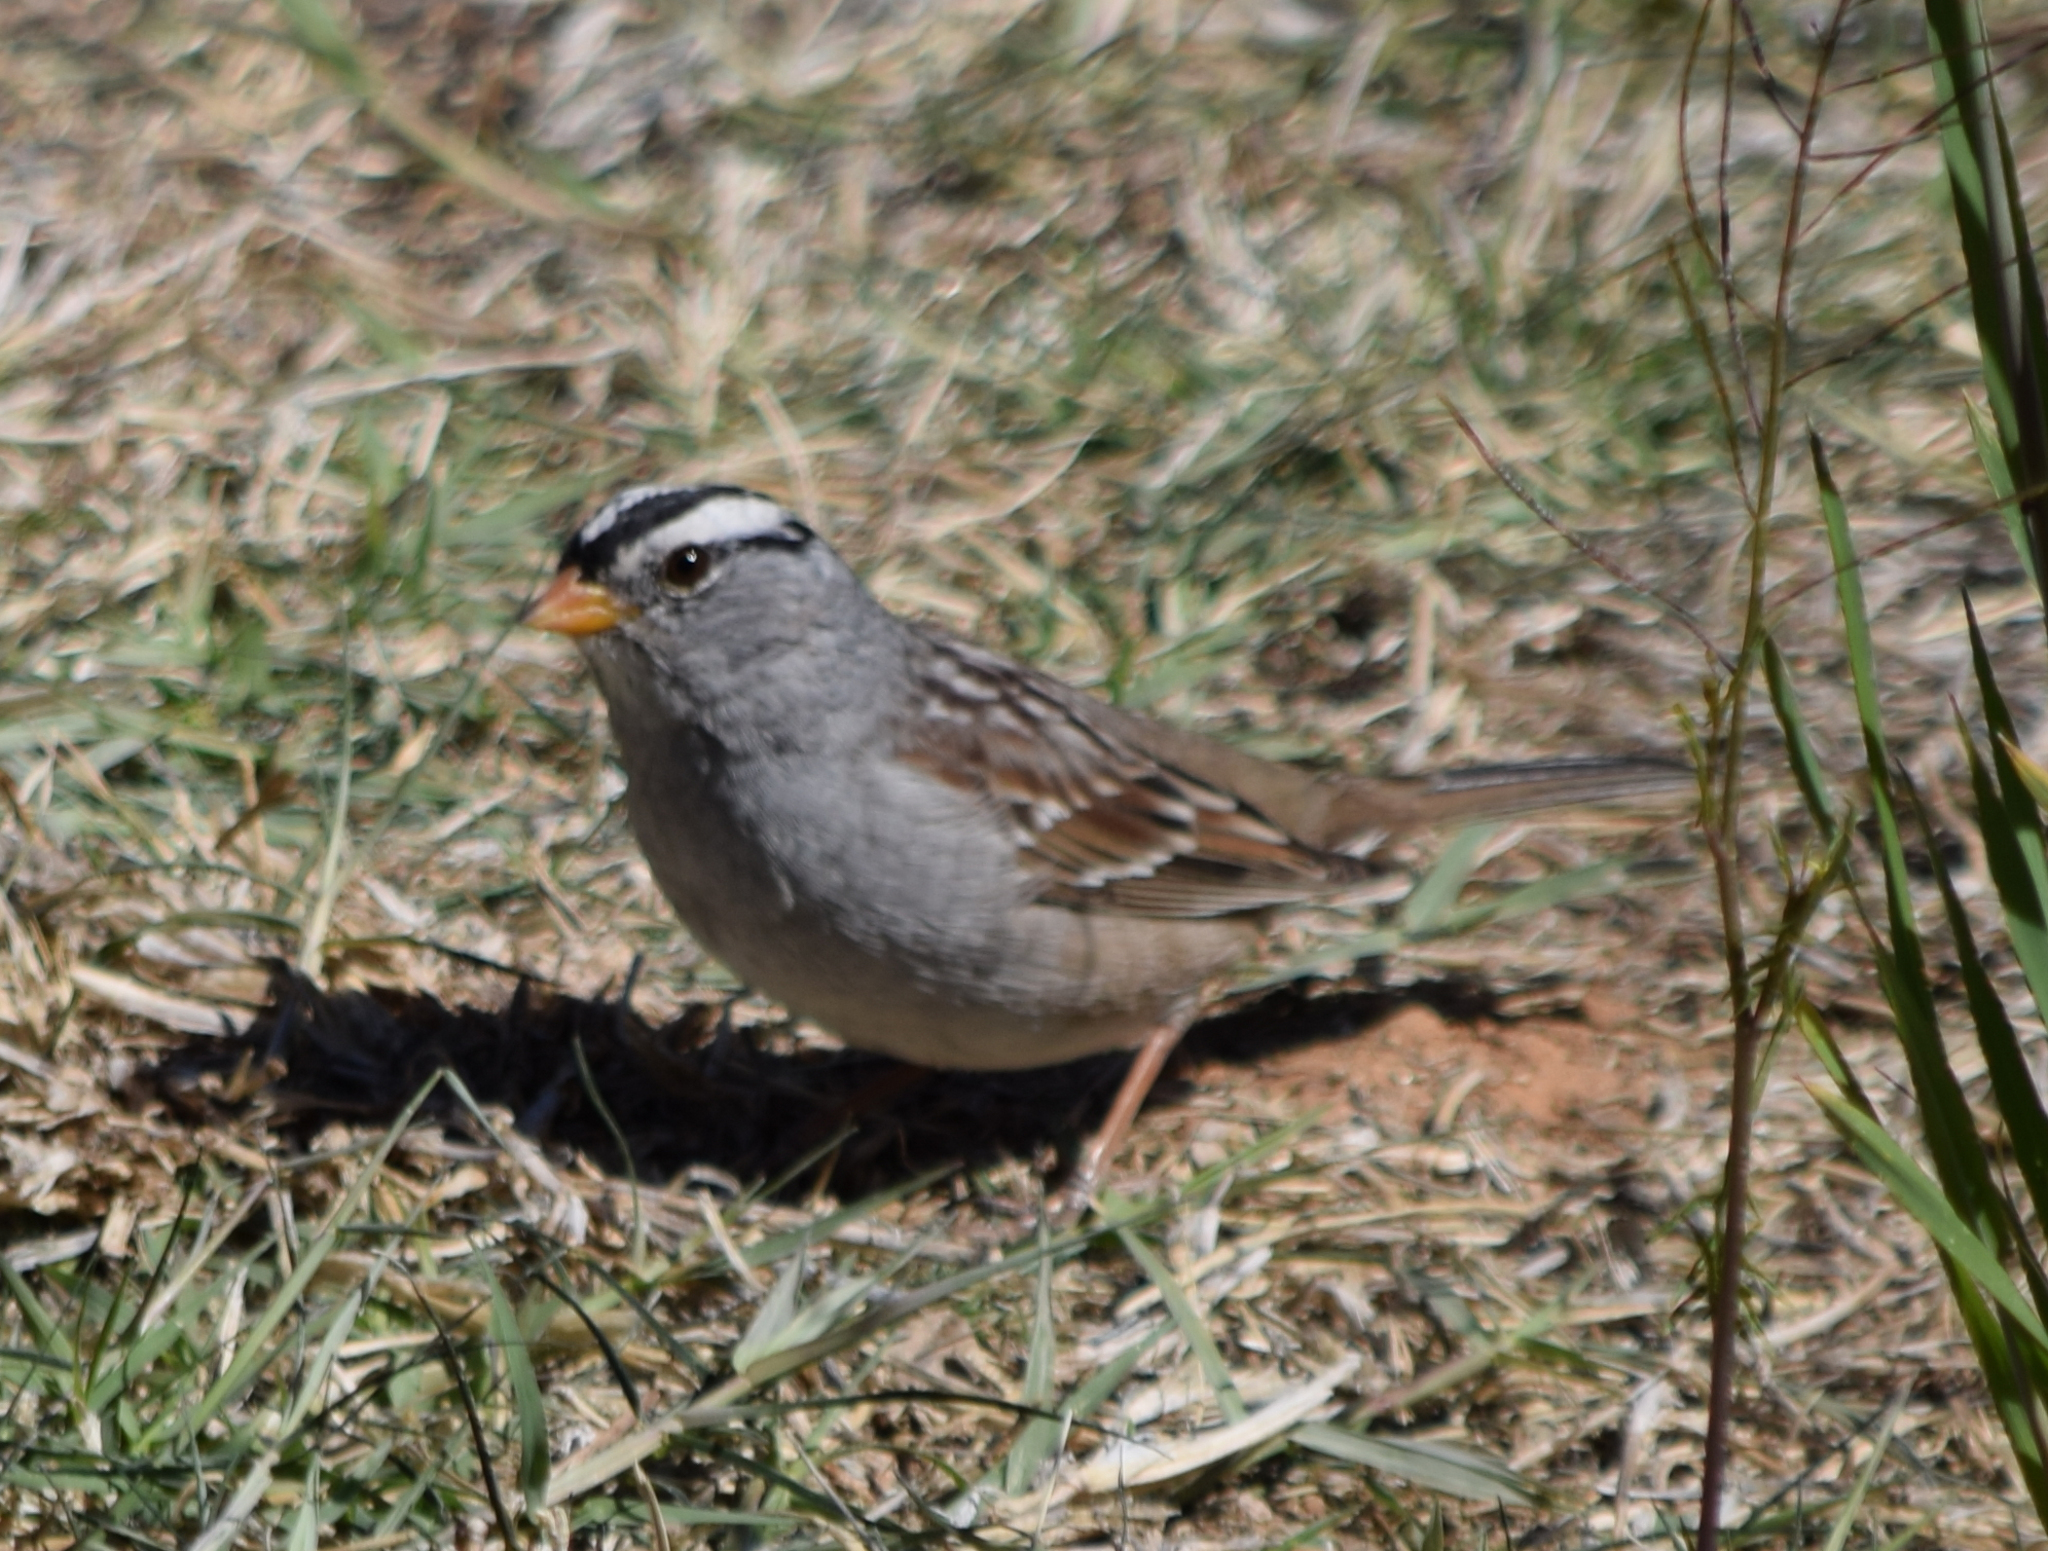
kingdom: Animalia
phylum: Chordata
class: Aves
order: Passeriformes
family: Passerellidae
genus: Zonotrichia
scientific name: Zonotrichia leucophrys
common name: White-crowned sparrow
